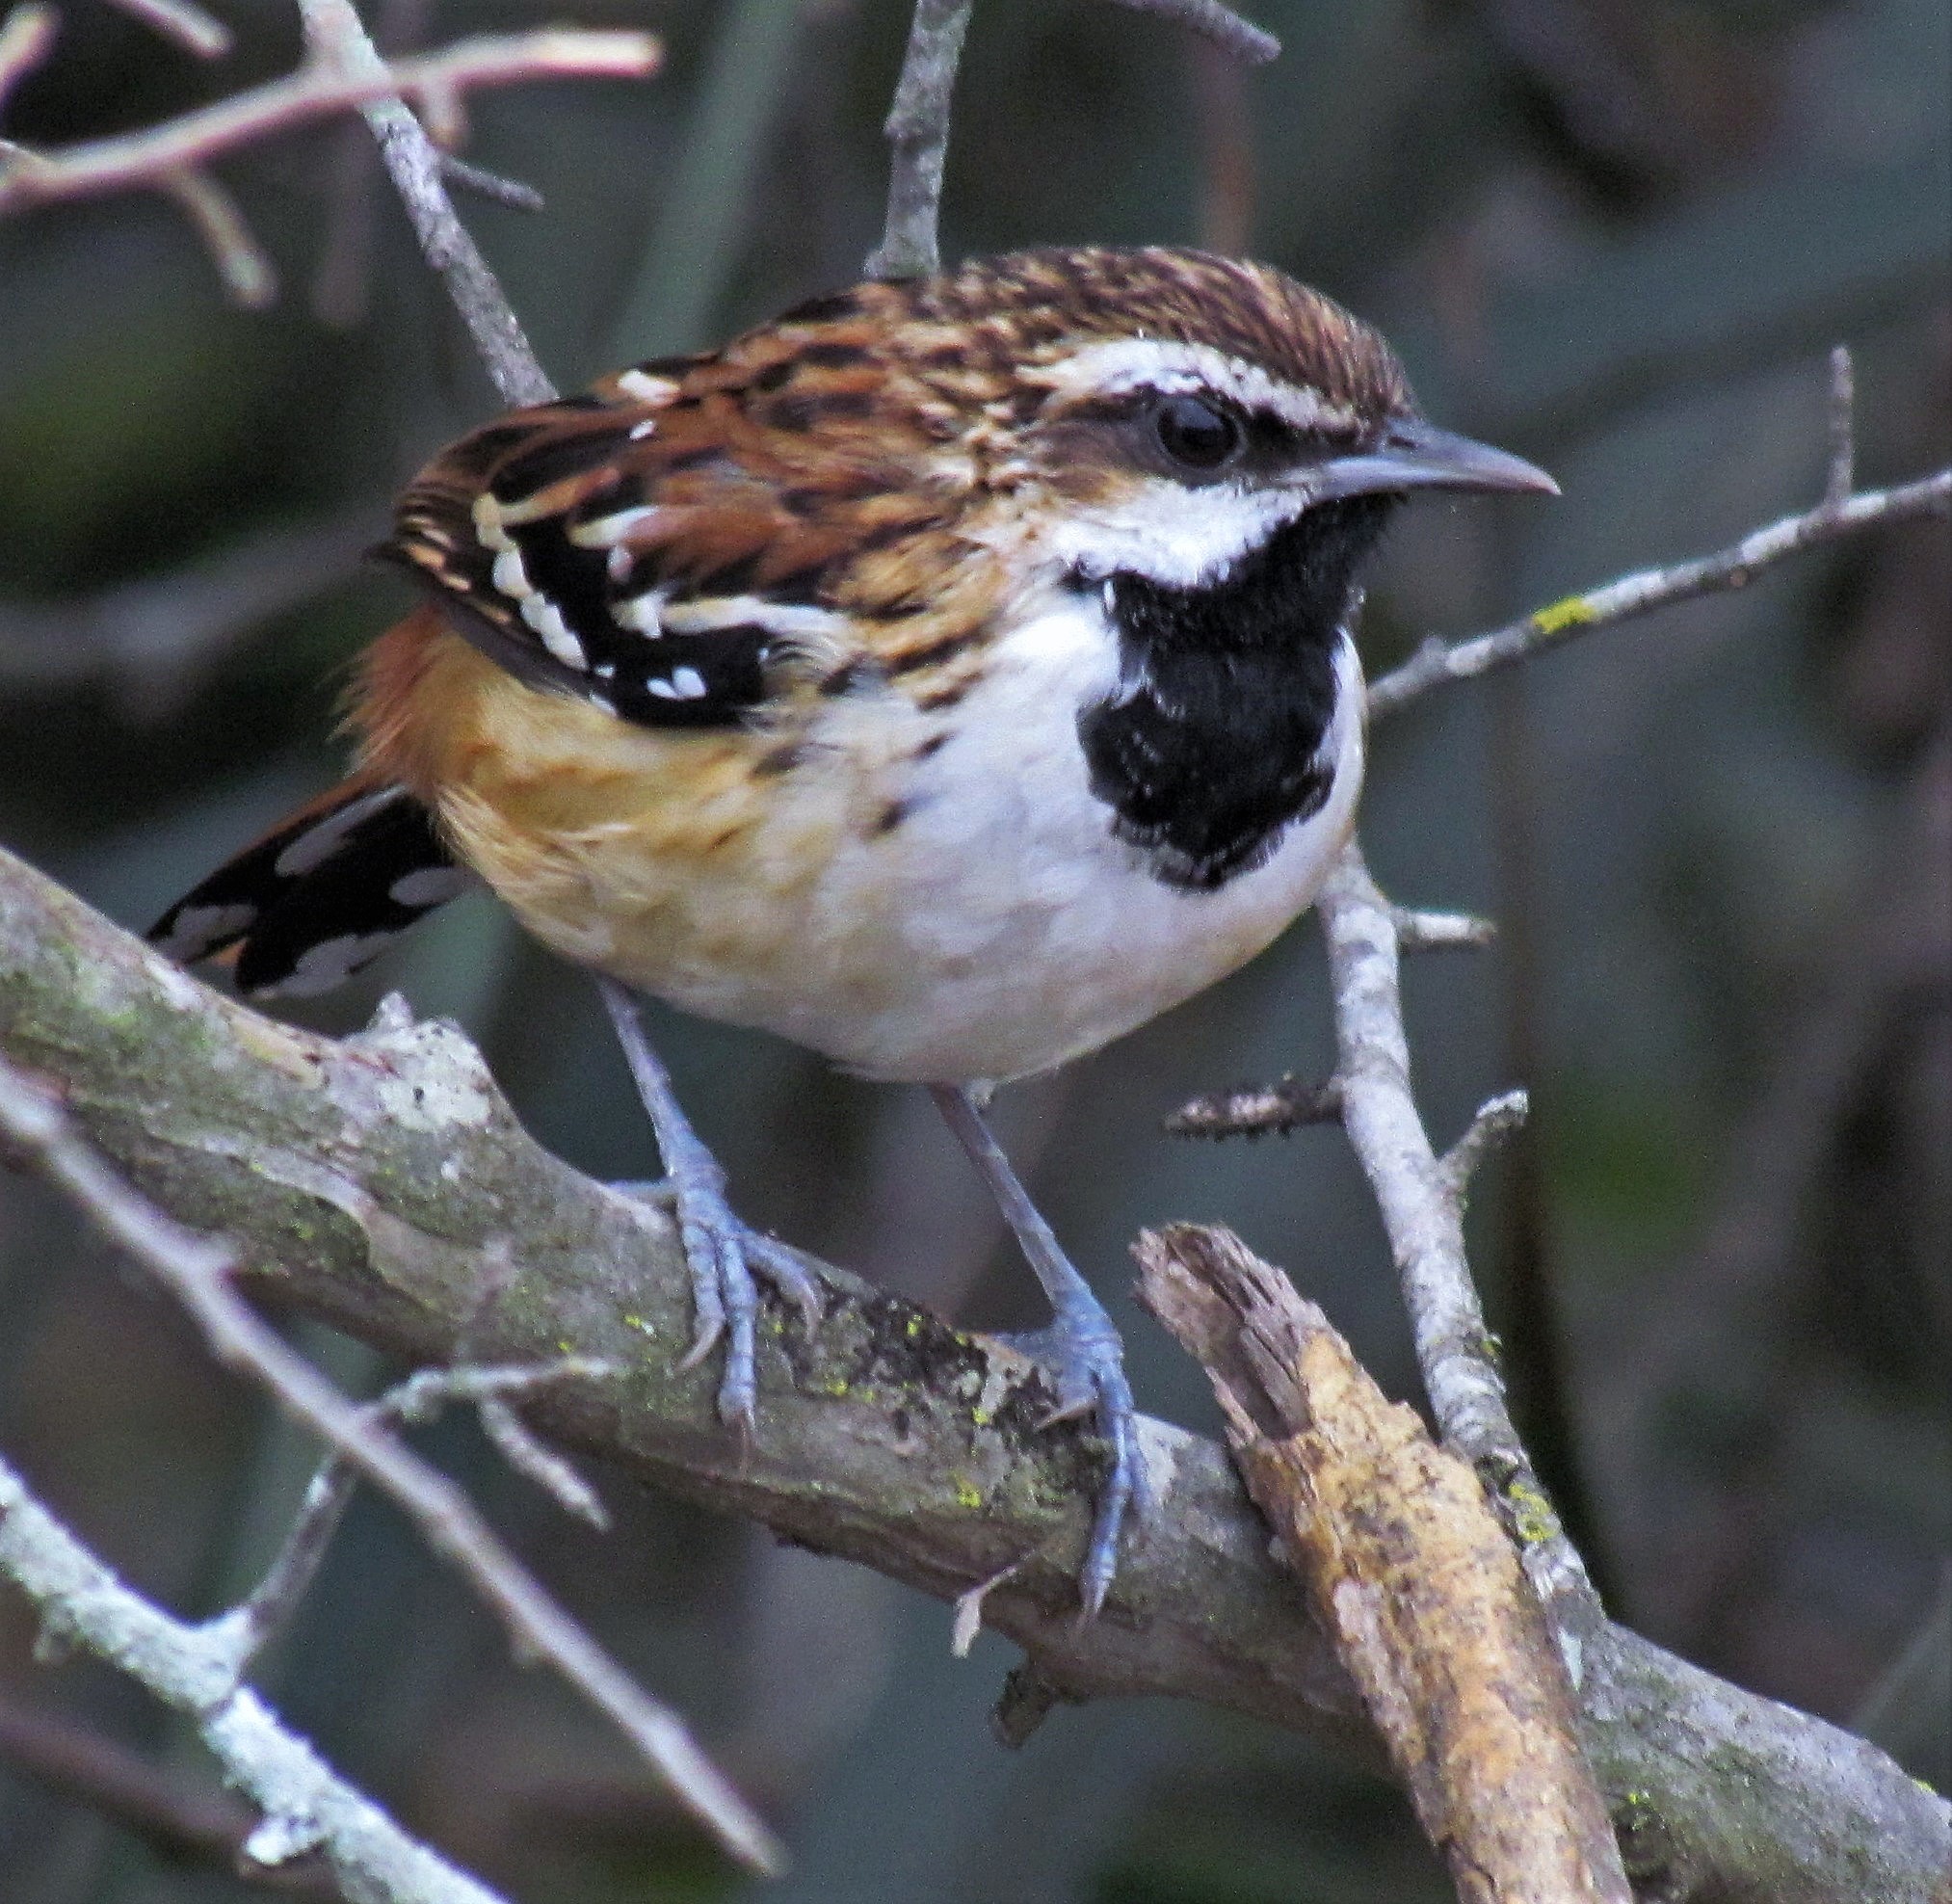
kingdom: Animalia
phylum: Chordata
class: Aves
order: Passeriformes
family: Thamnophilidae
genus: Myrmorchilus
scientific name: Myrmorchilus strigilatus
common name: Stripe-backed antbird
